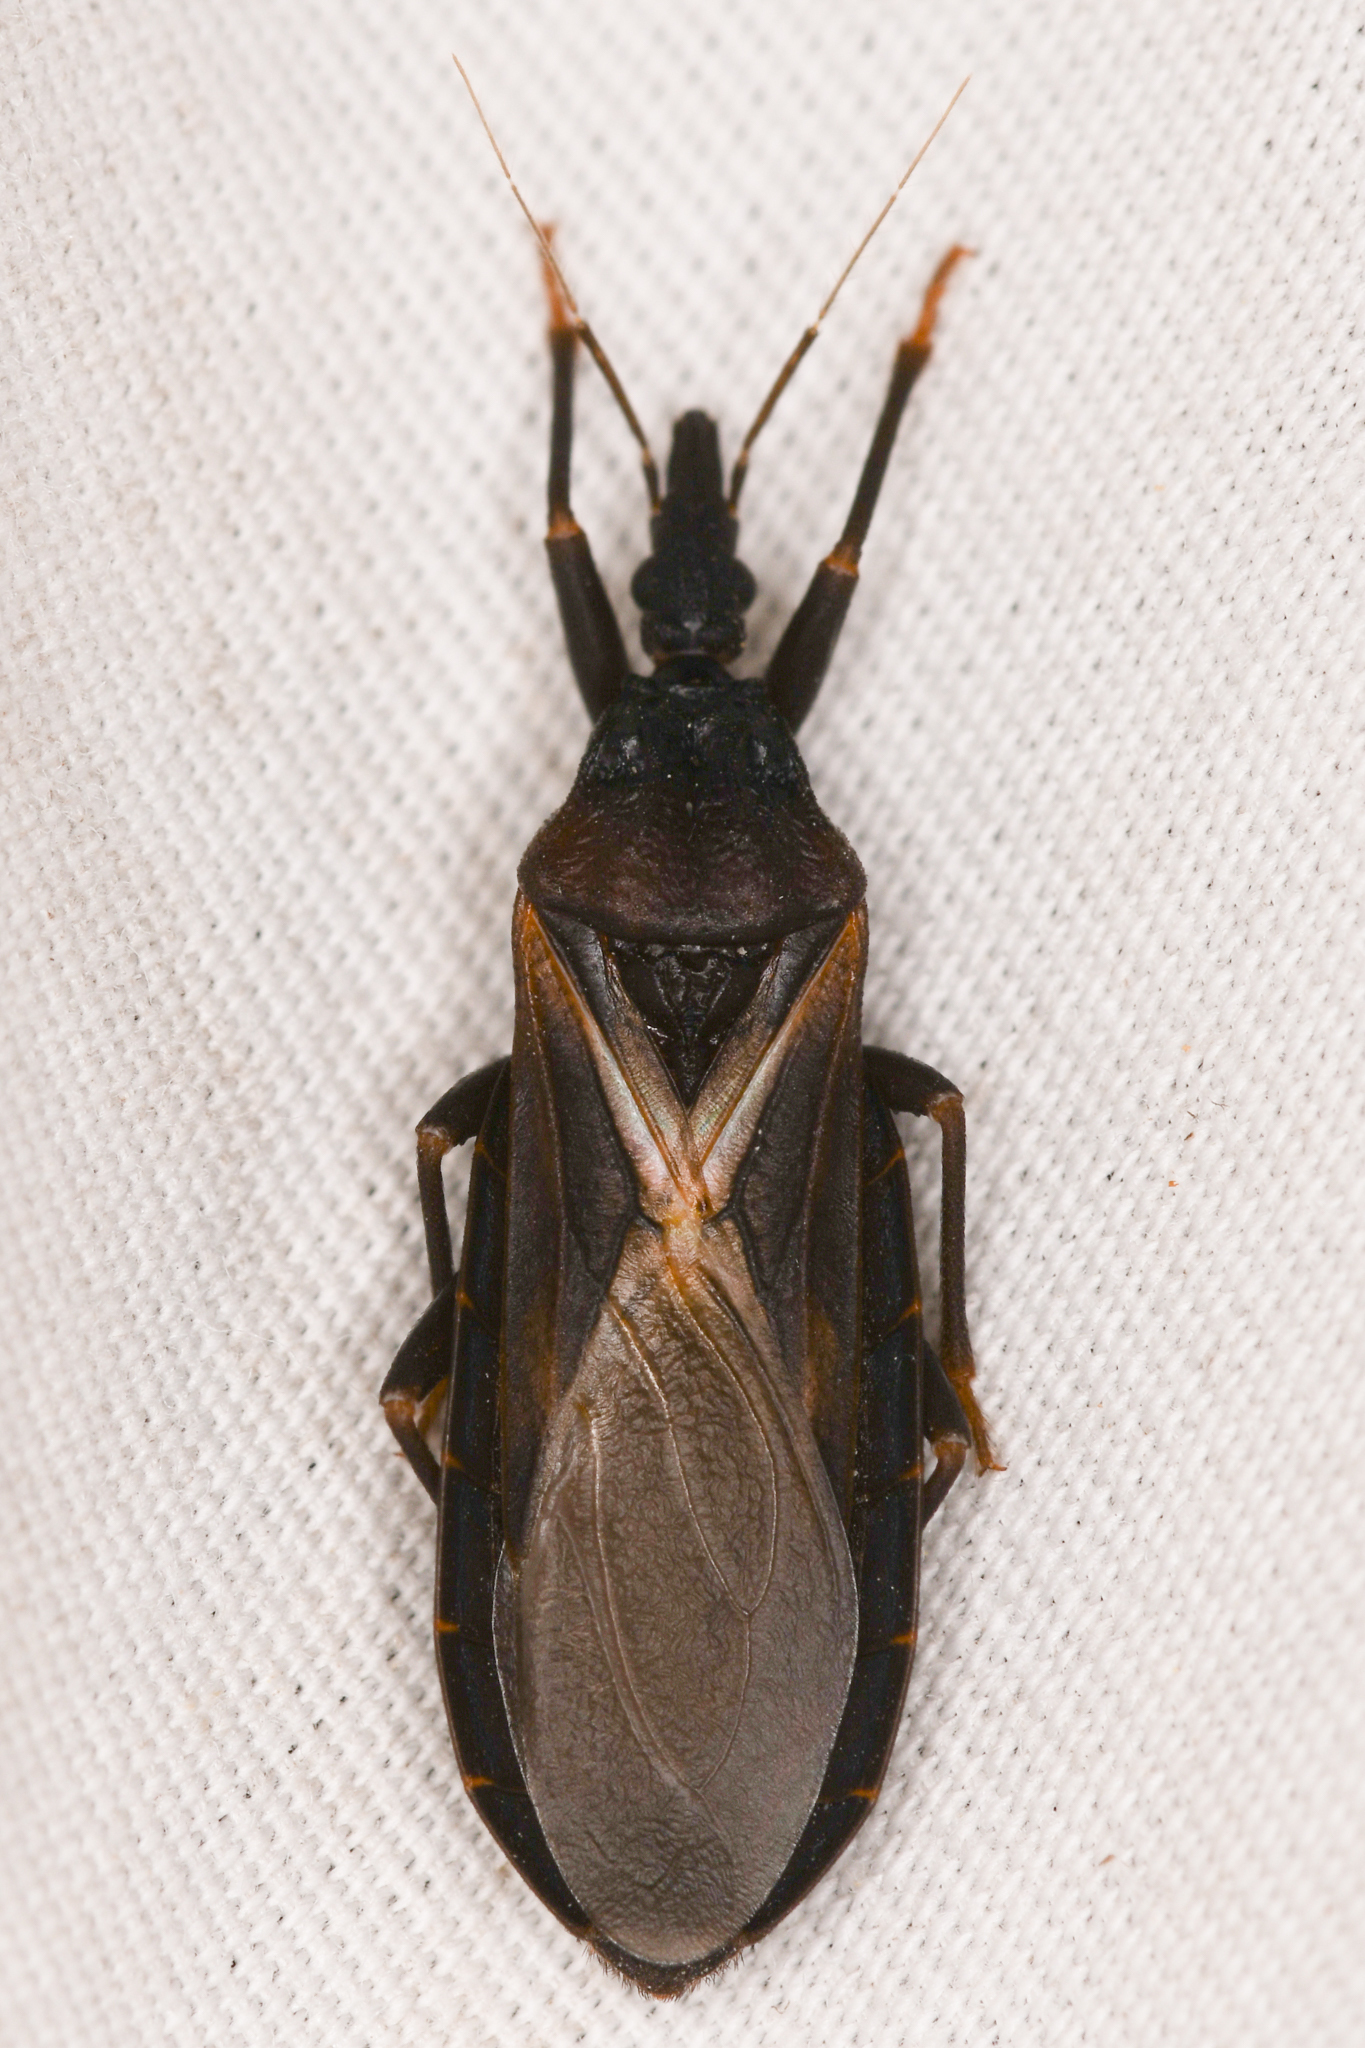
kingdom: Animalia
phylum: Arthropoda
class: Insecta
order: Hemiptera
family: Reduviidae
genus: Triatoma
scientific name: Triatoma protracta
